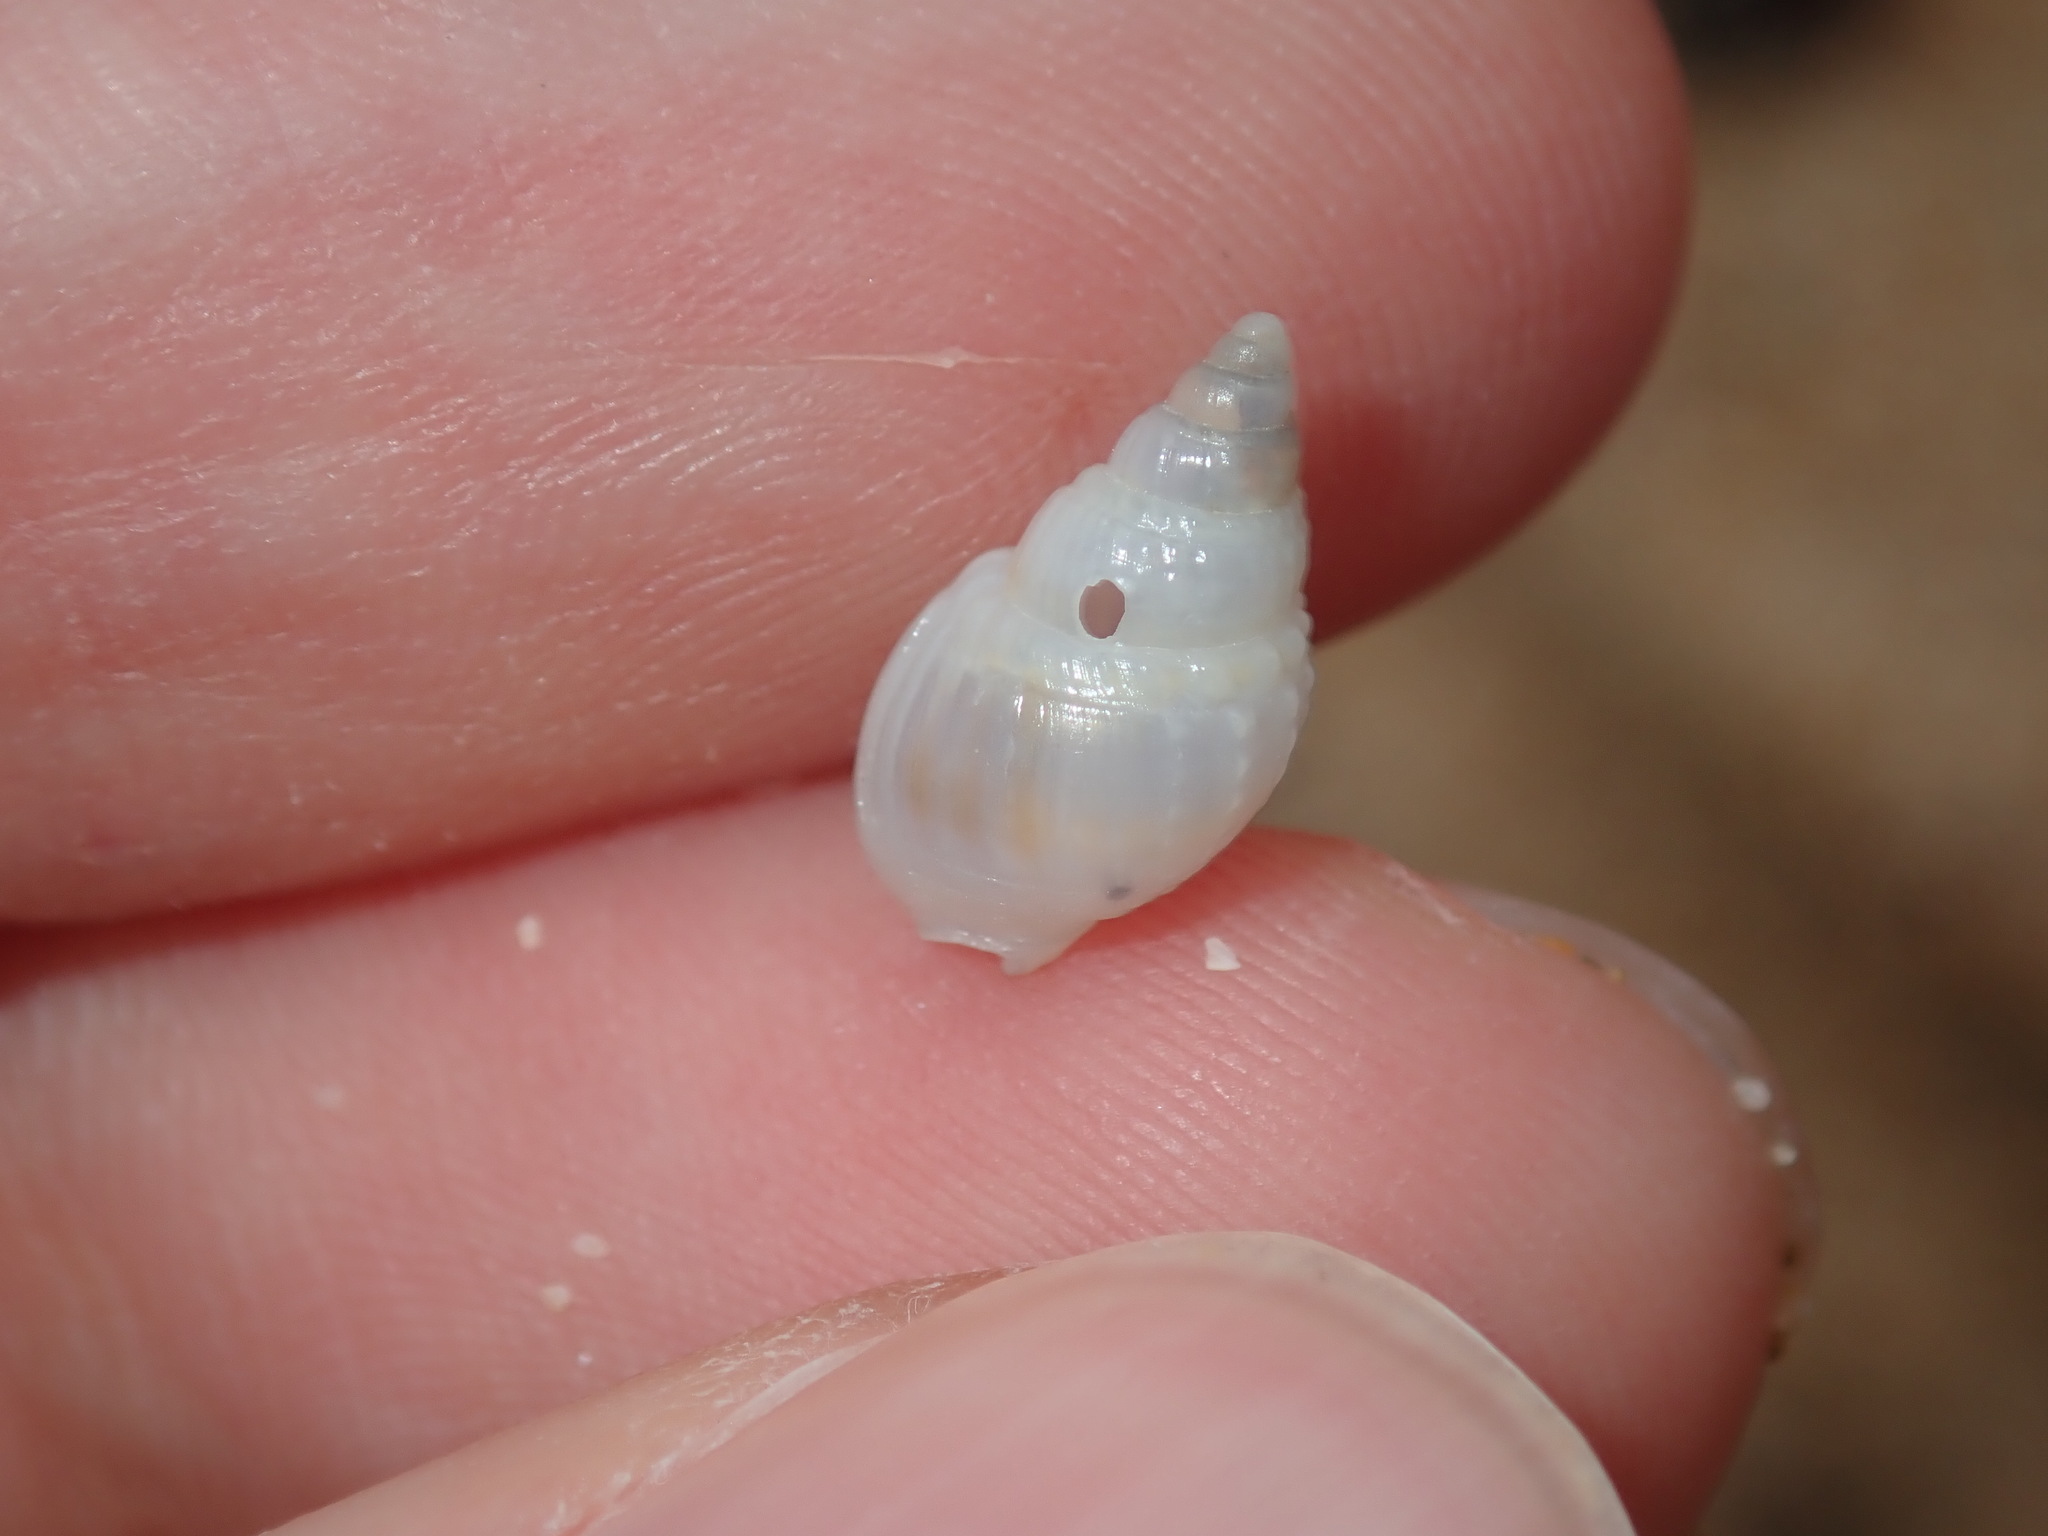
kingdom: Animalia
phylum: Mollusca
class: Gastropoda
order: Neogastropoda
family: Nassariidae
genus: Nassarius
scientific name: Nassarius nigellus
